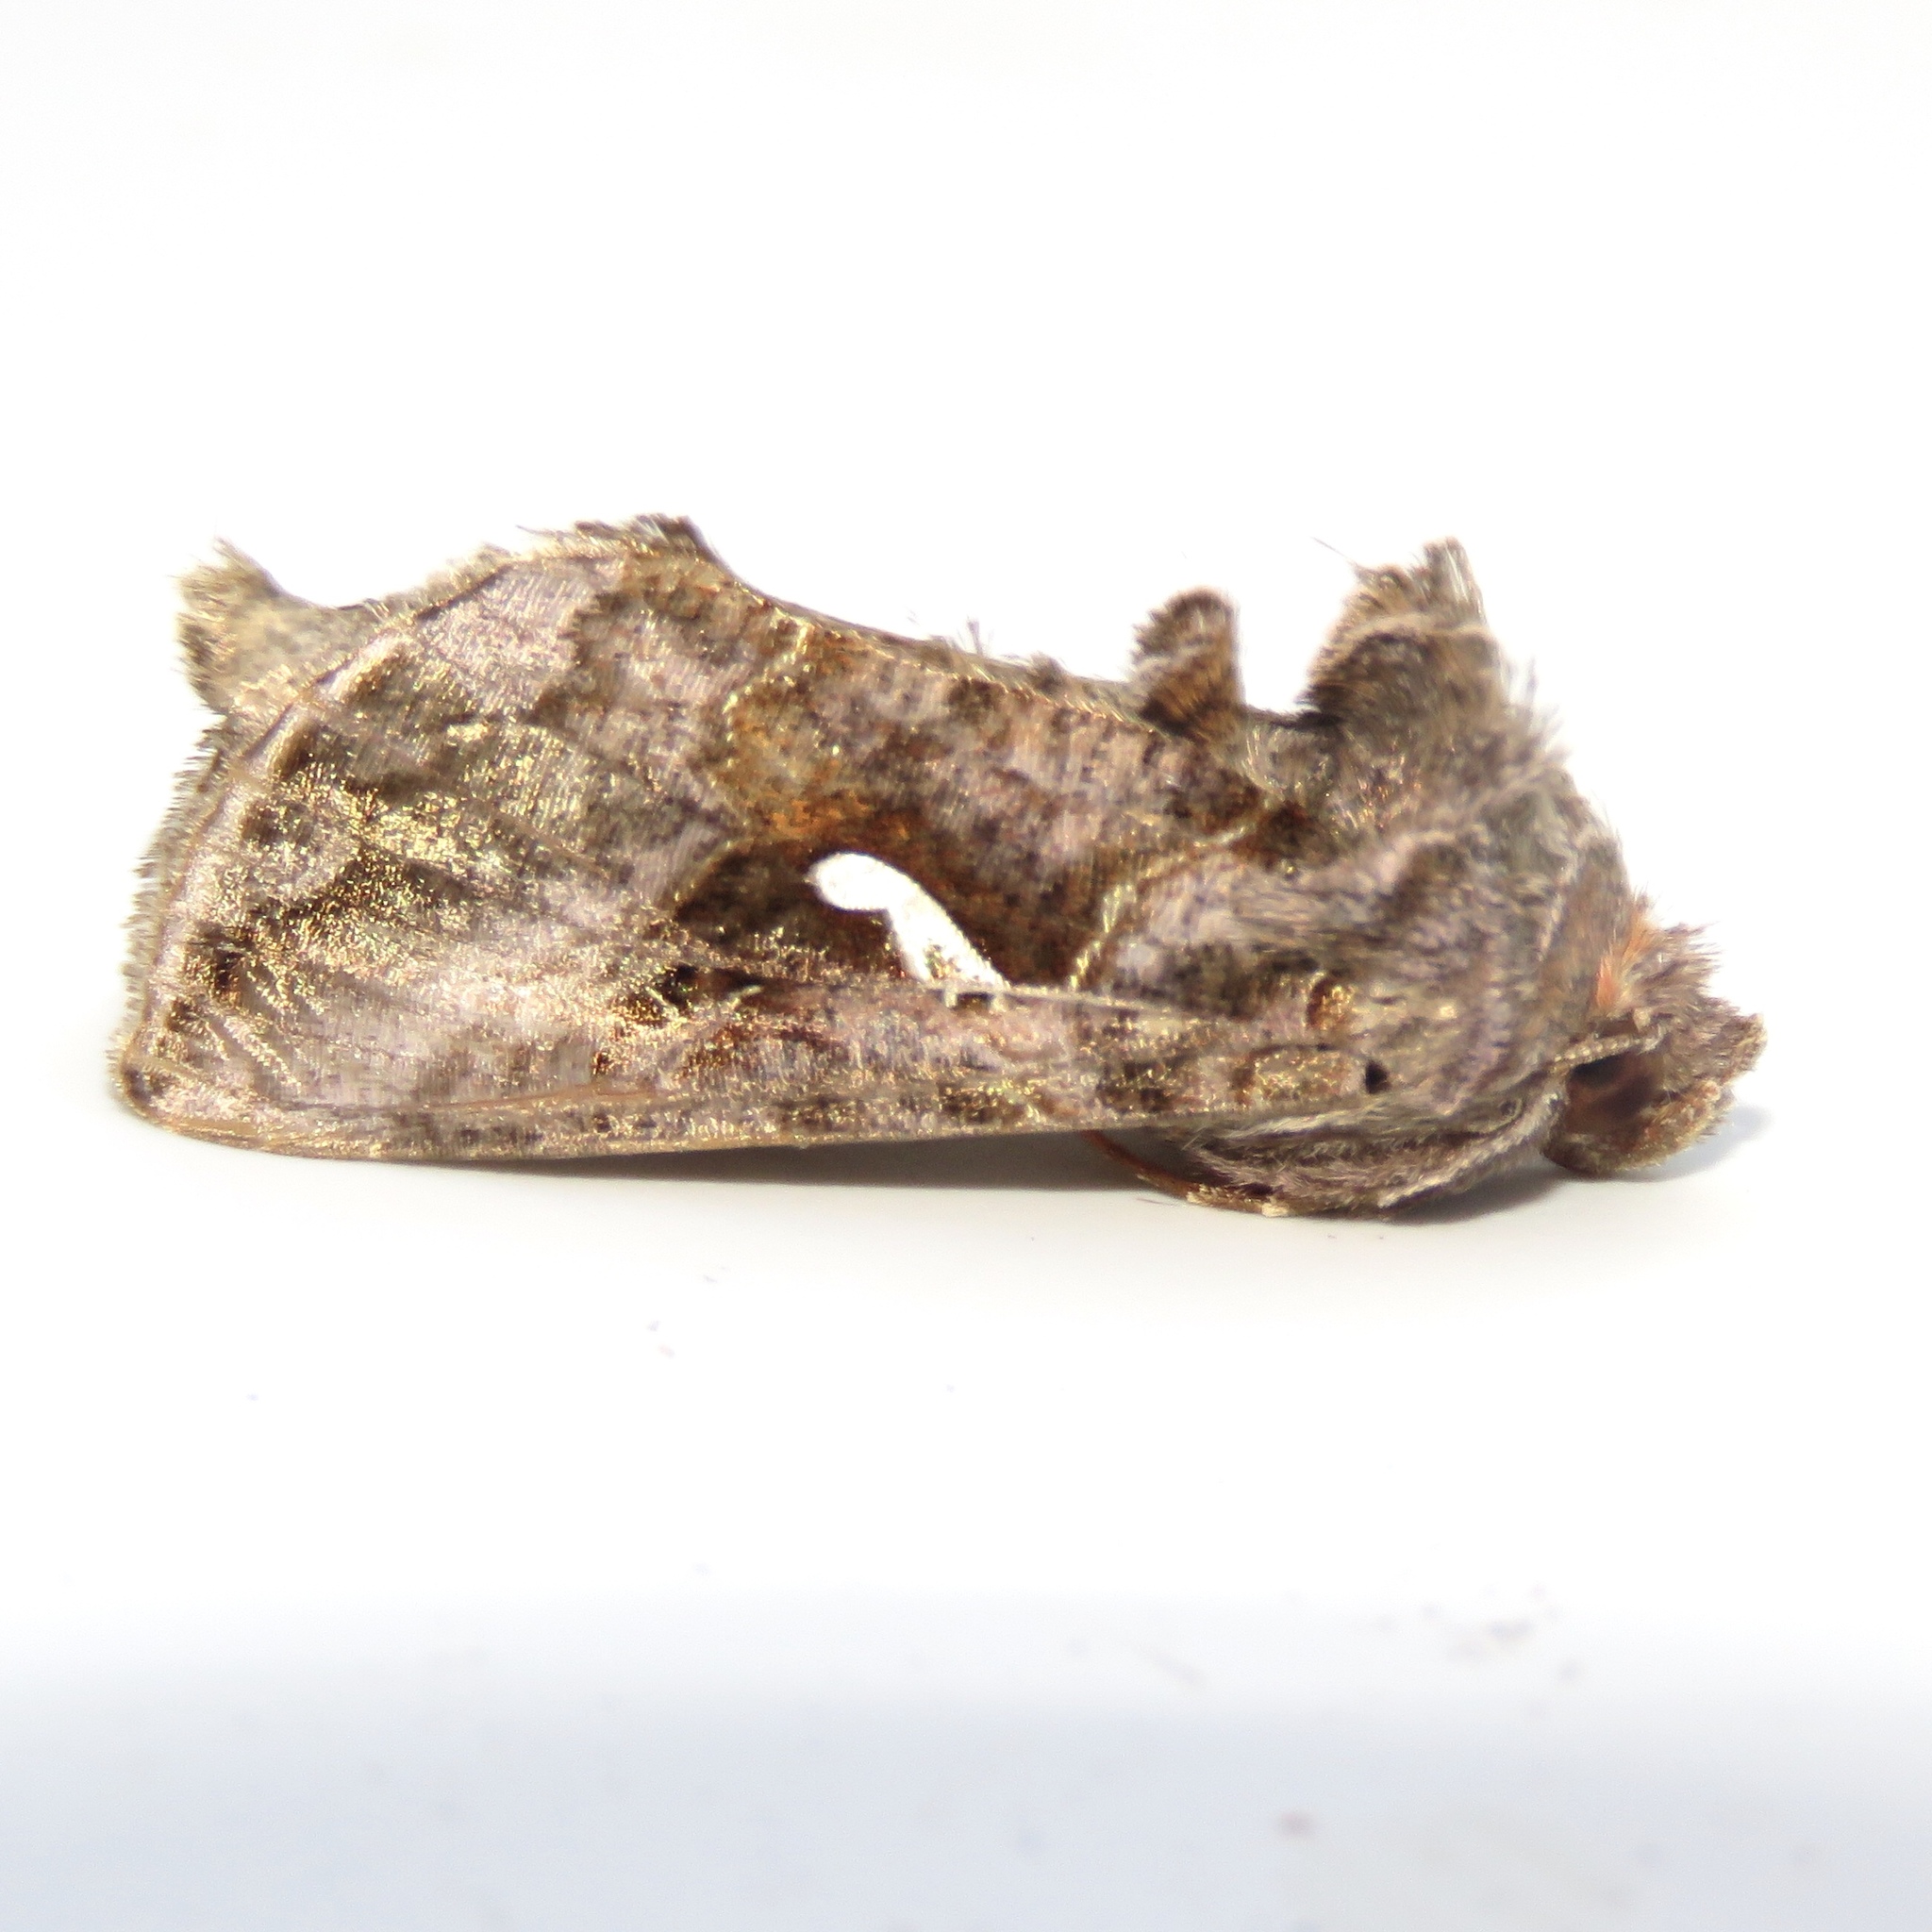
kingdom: Animalia
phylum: Arthropoda
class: Insecta
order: Lepidoptera
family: Noctuidae
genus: Autographa
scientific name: Autographa precationis
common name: Common looper moth
